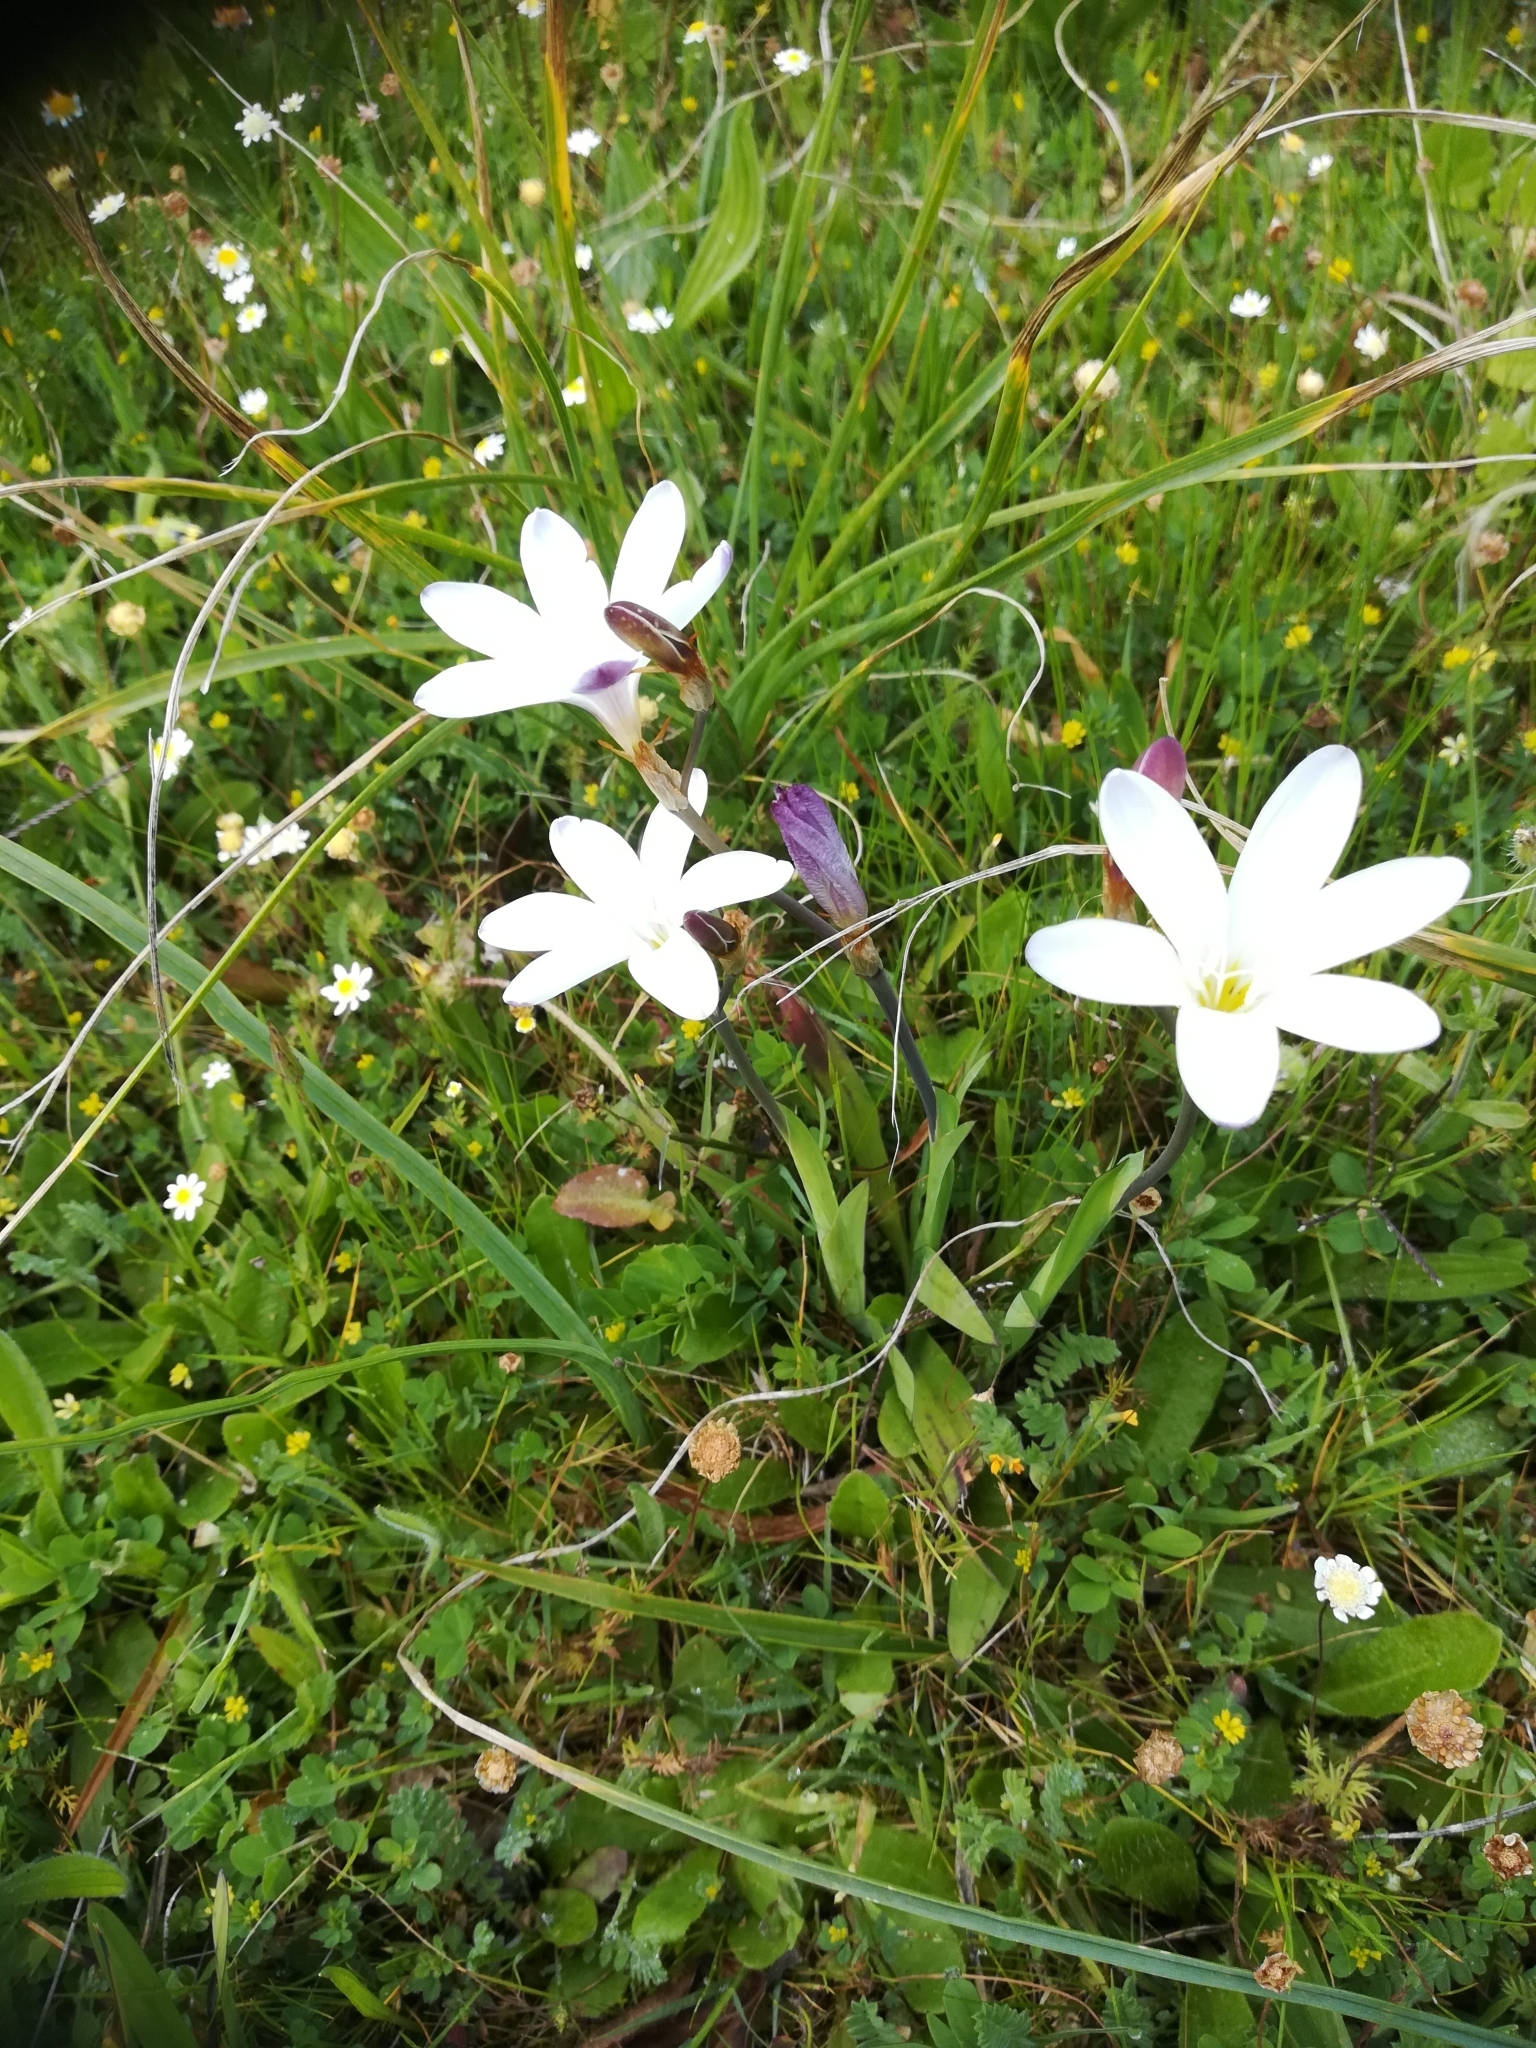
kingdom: Plantae
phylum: Tracheophyta
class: Liliopsida
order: Asparagales
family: Iridaceae
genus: Sparaxis
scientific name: Sparaxis bulbifera
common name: Harlequin-flower
